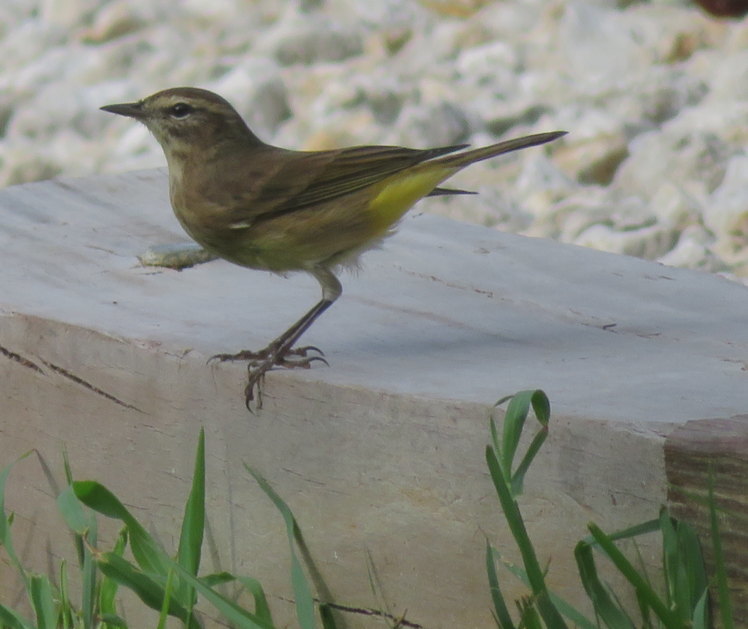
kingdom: Animalia
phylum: Chordata
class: Aves
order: Passeriformes
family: Parulidae
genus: Setophaga
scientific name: Setophaga palmarum
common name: Palm warbler
